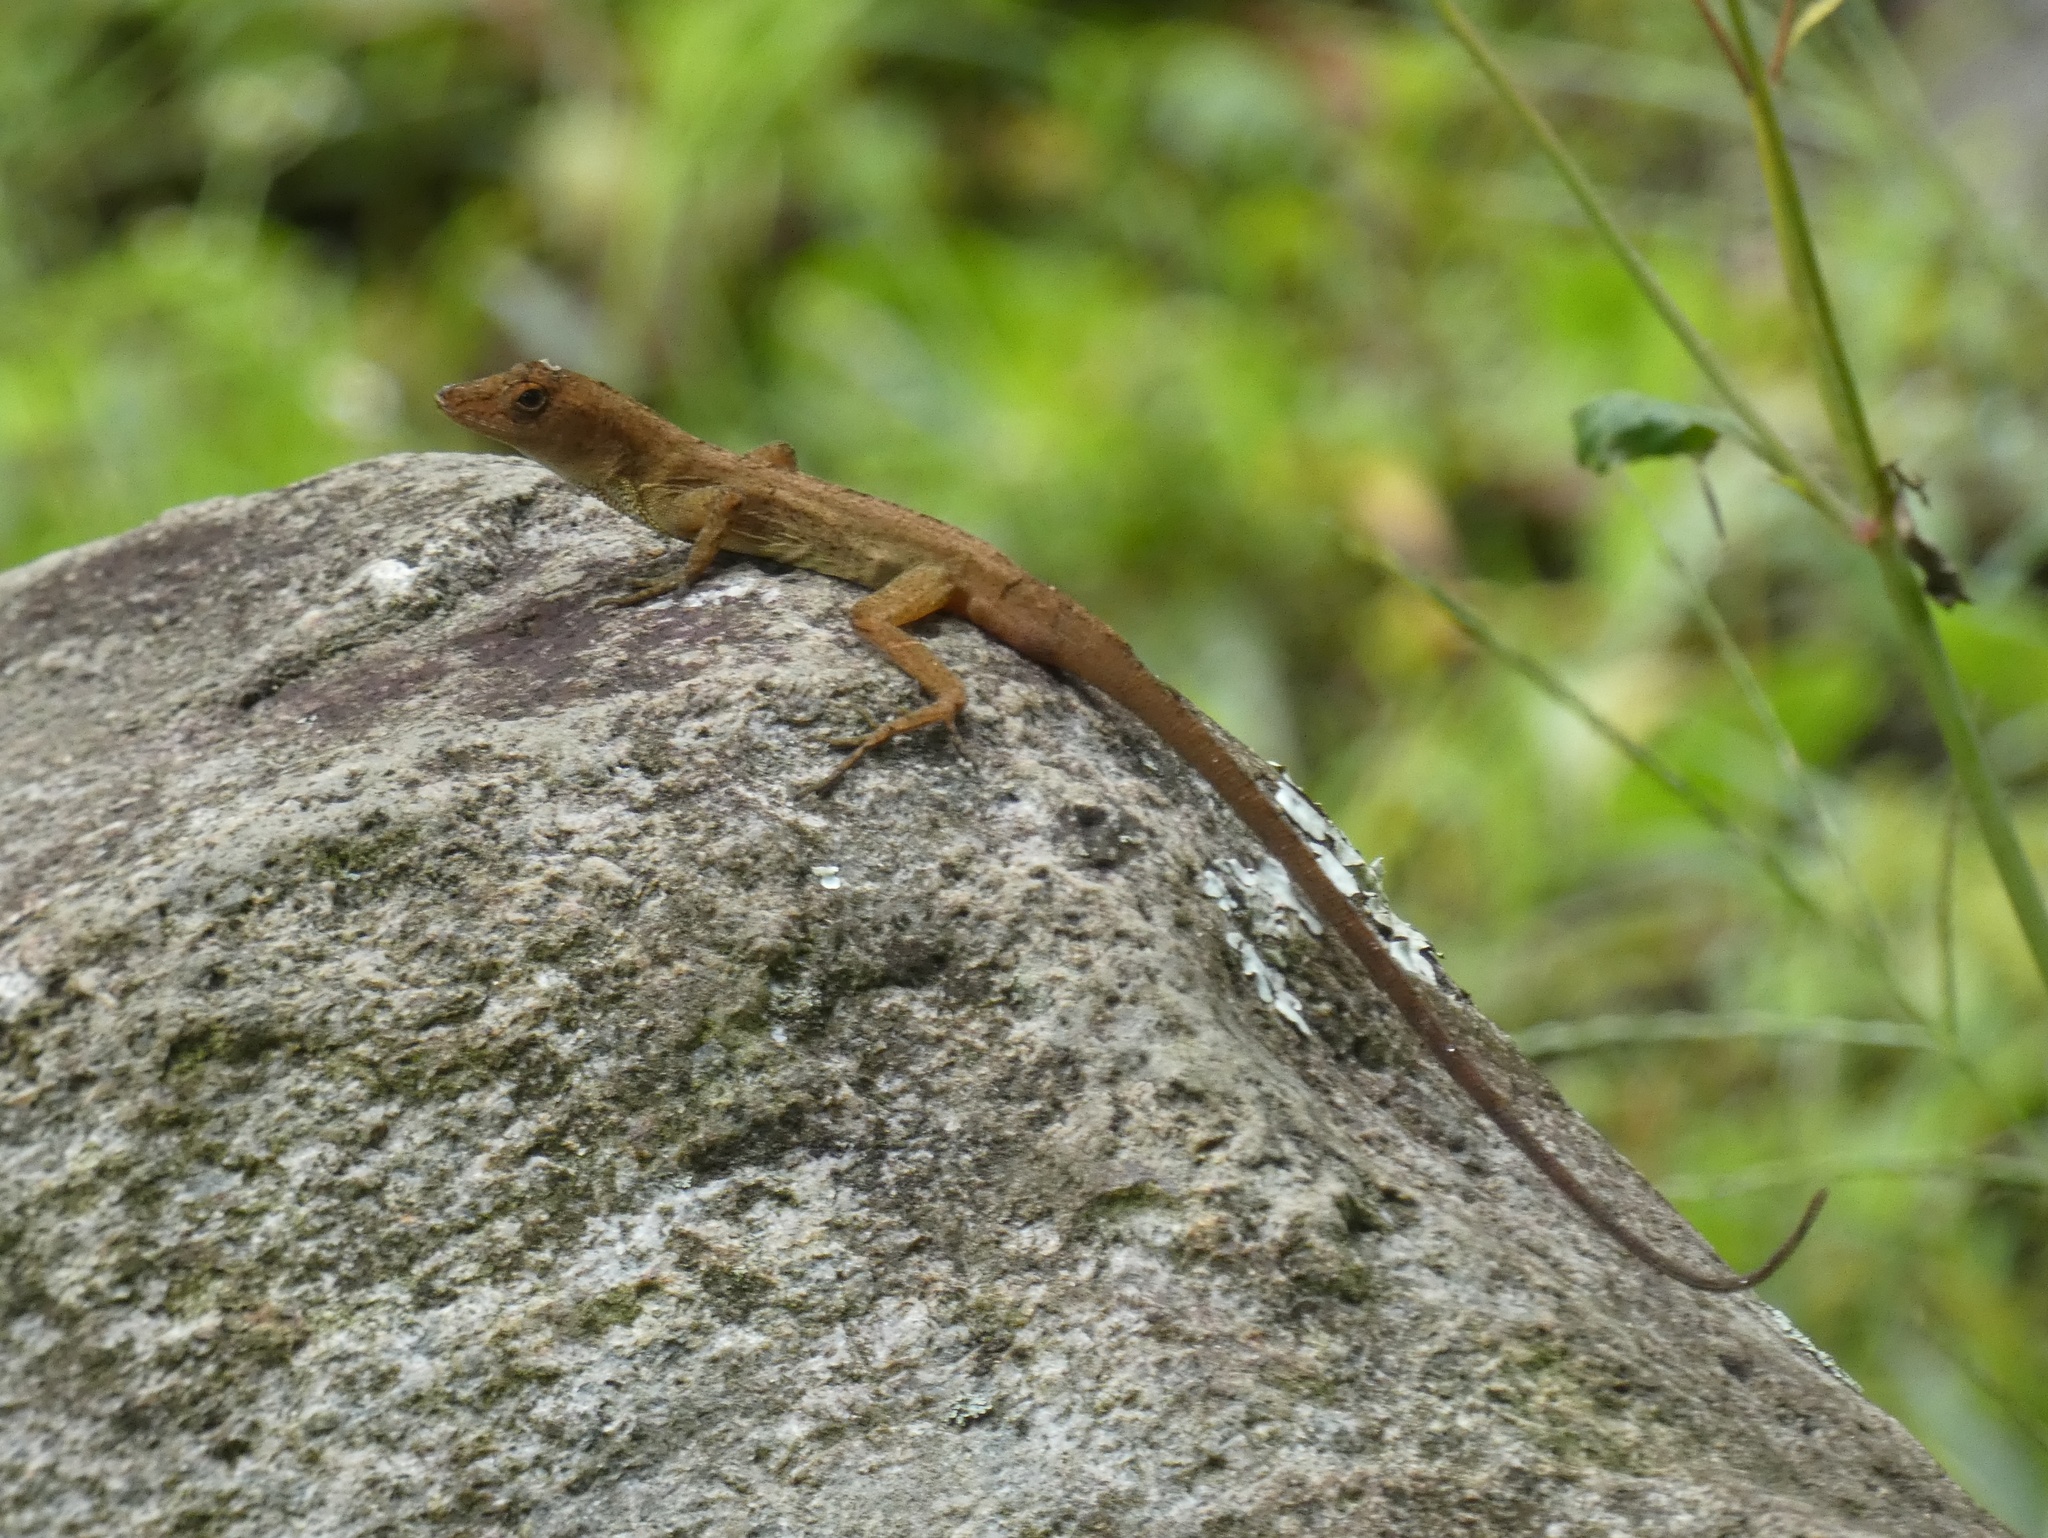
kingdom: Animalia
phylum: Chordata
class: Squamata
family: Dactyloidae
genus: Anolis
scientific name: Anolis polylepis
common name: Many-scaled anole
